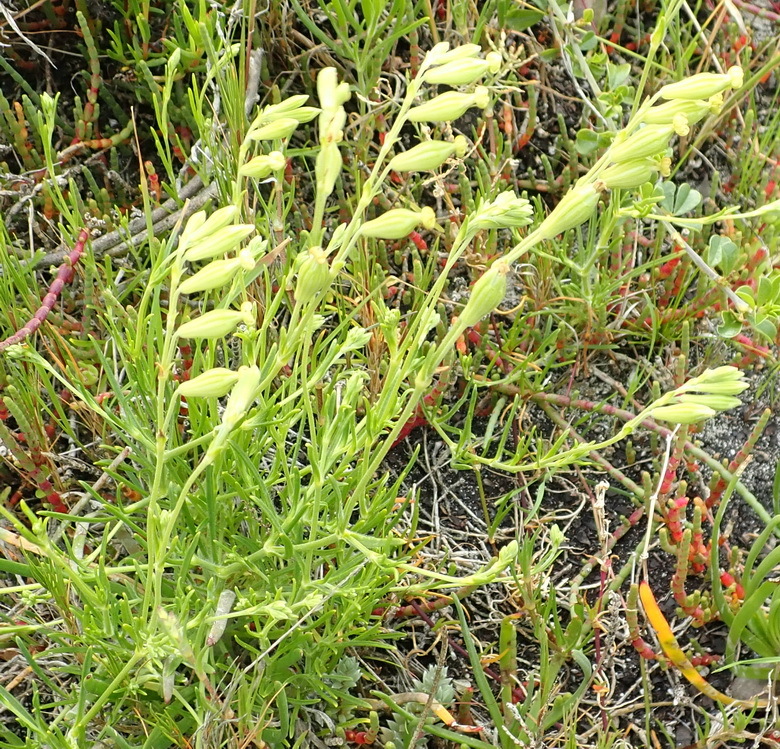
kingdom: Plantae
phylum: Tracheophyta
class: Magnoliopsida
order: Caryophyllales
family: Caryophyllaceae
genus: Silene
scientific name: Silene aethiopica
